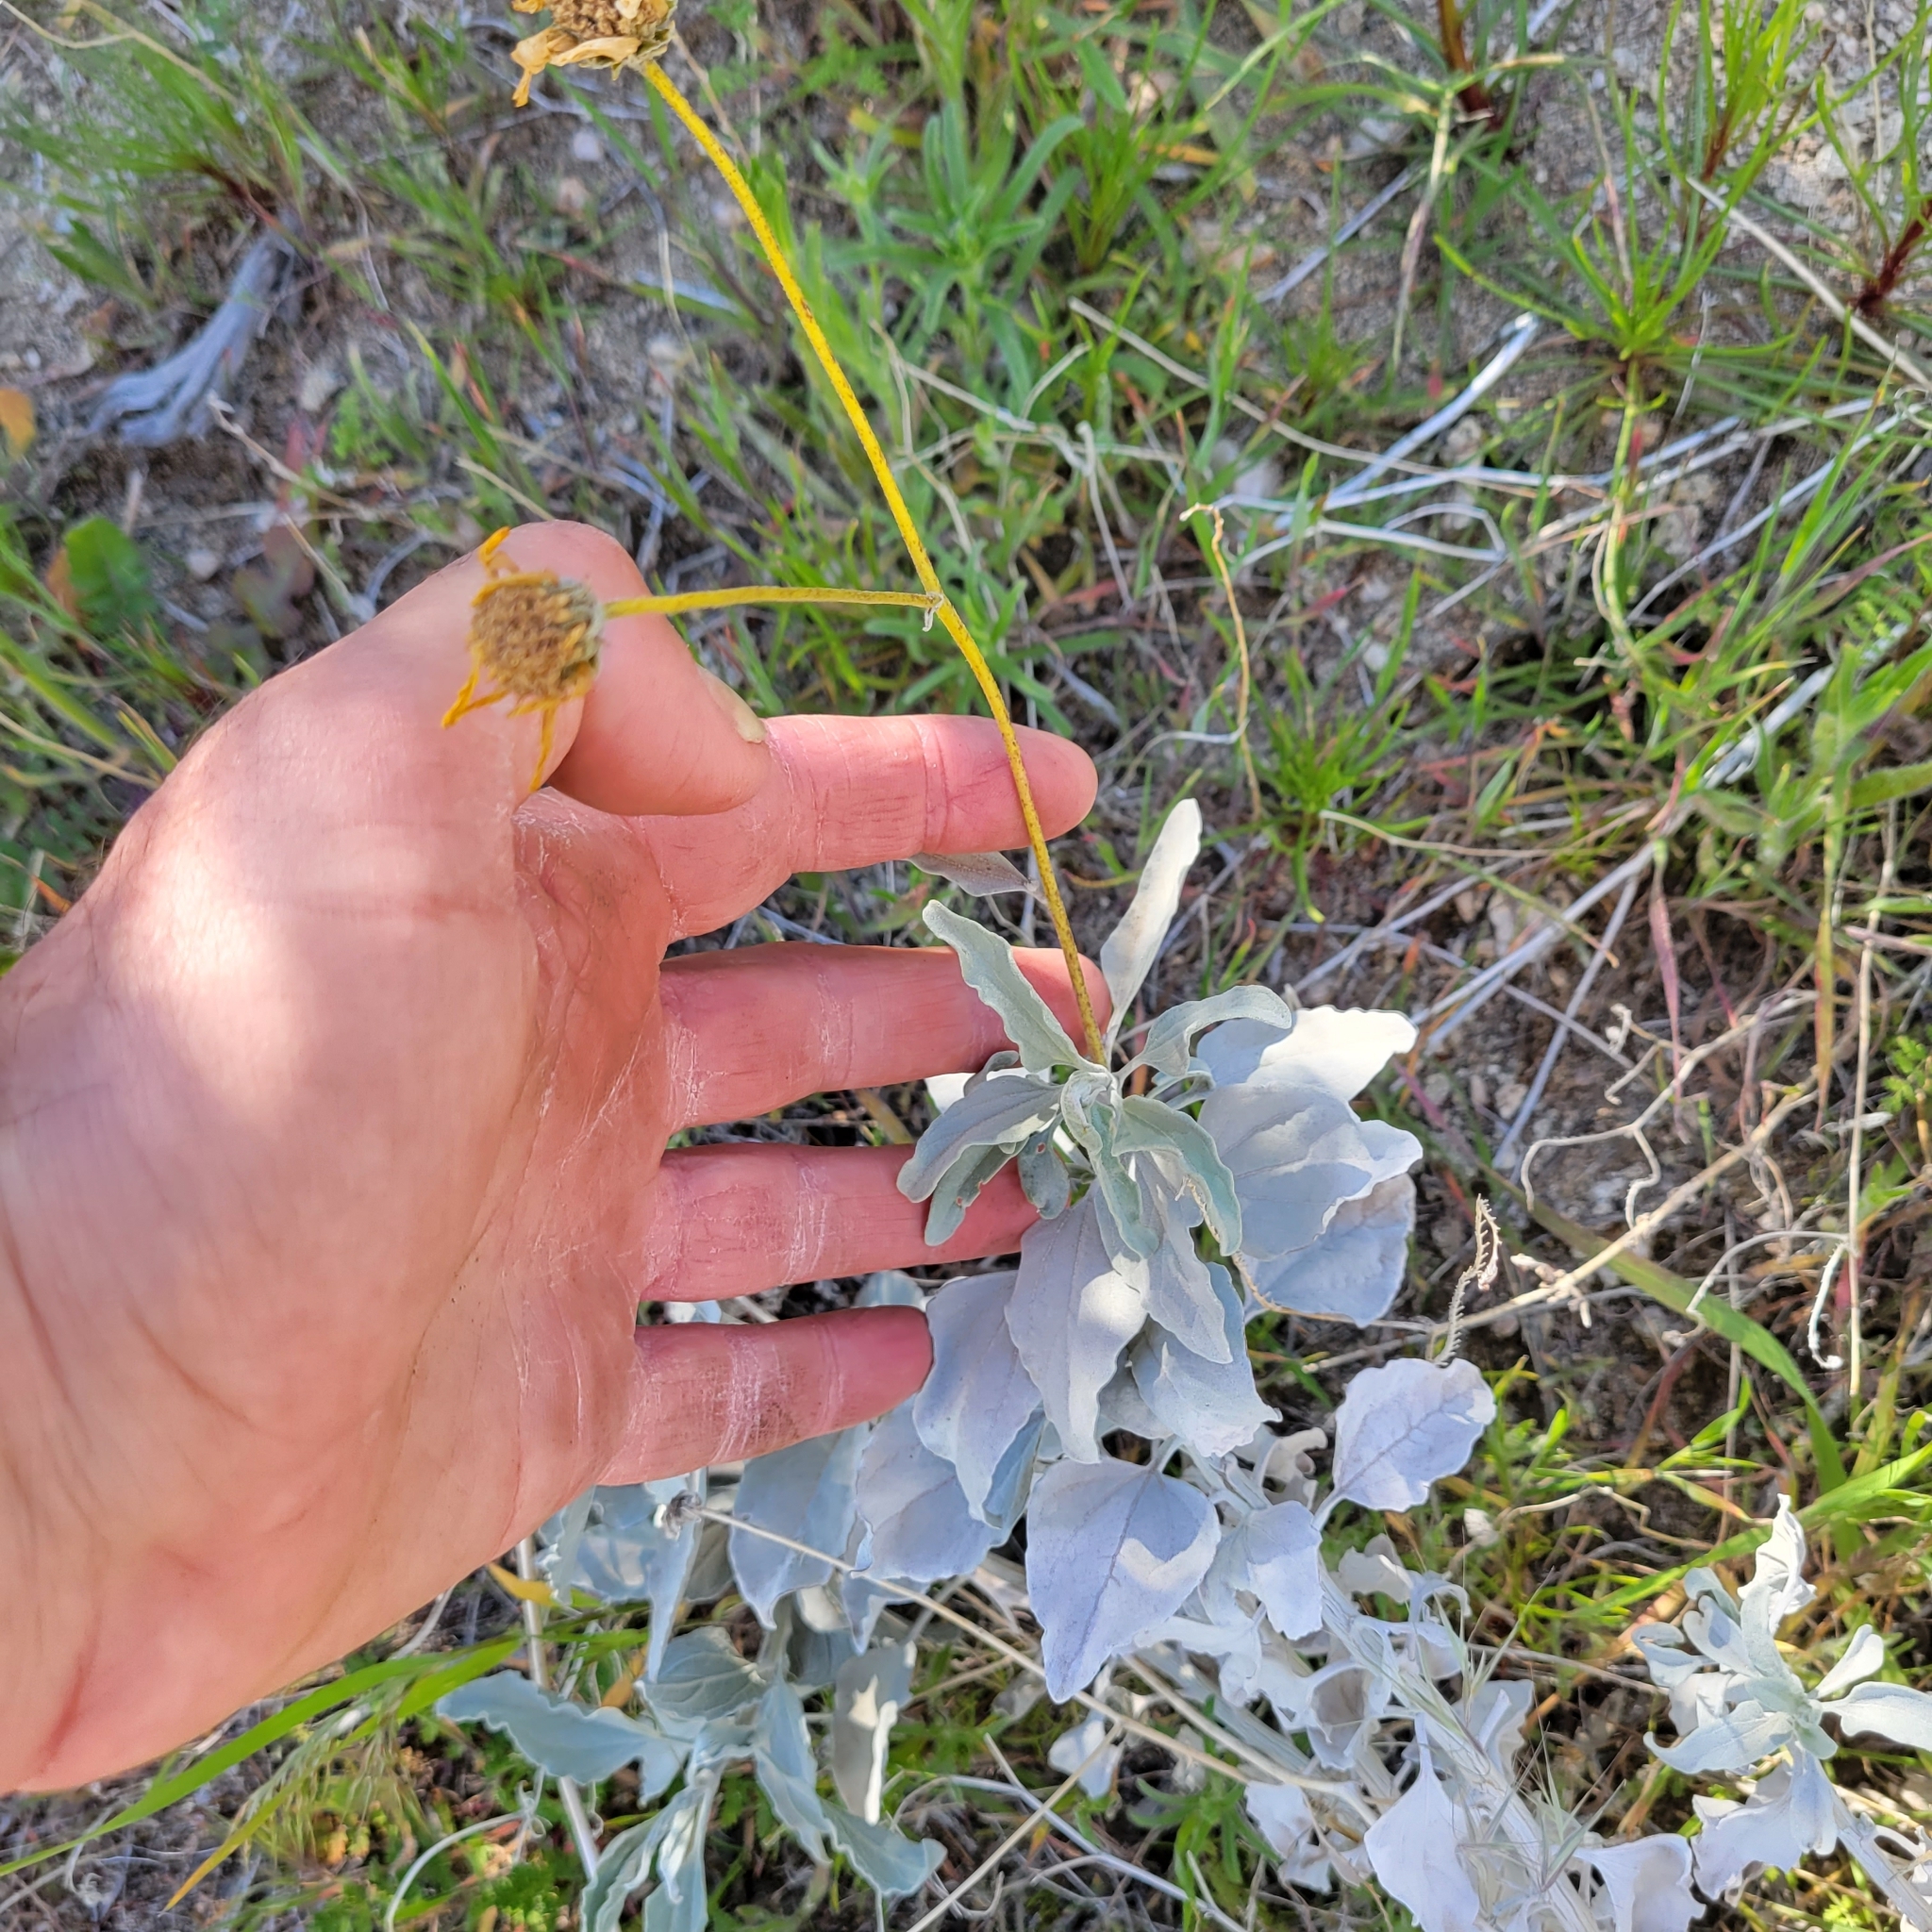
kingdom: Plantae
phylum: Tracheophyta
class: Magnoliopsida
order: Asterales
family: Asteraceae
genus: Encelia
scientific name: Encelia farinosa
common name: Brittlebush
